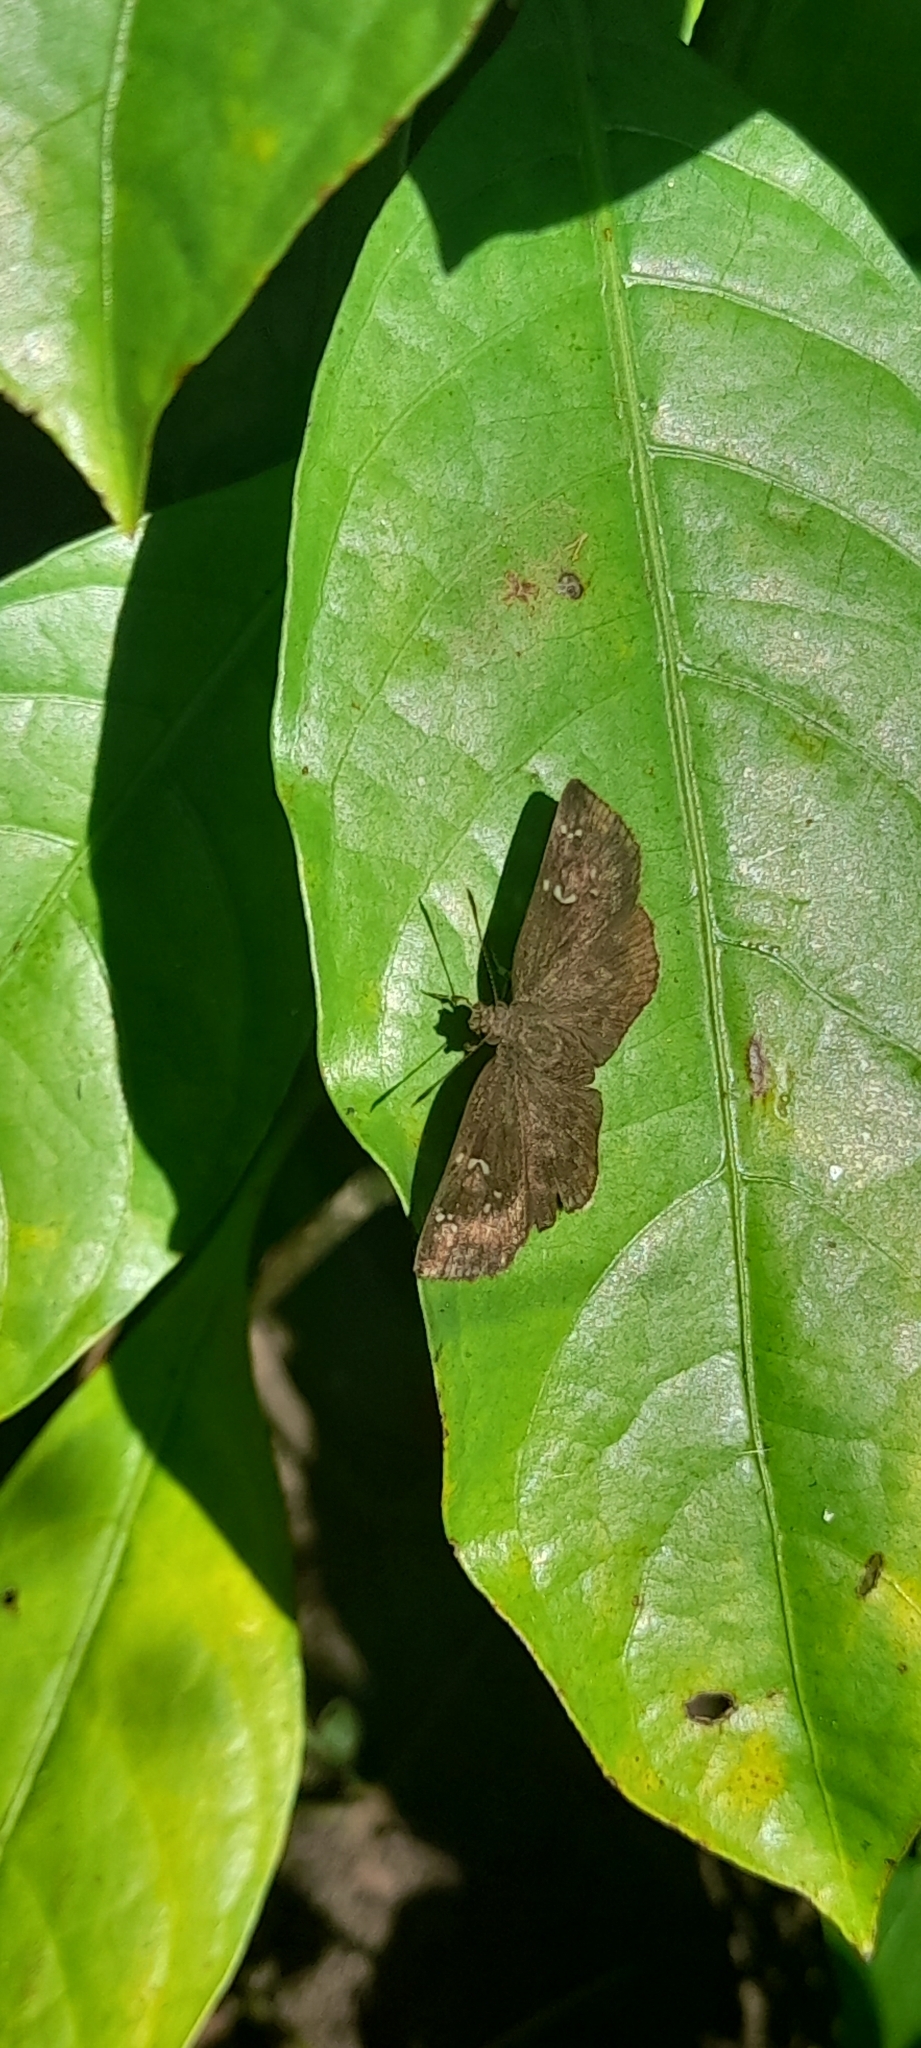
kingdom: Animalia
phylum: Arthropoda
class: Insecta
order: Lepidoptera
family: Hesperiidae
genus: Sarangesa
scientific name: Sarangesa dasahara
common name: Common small flat
